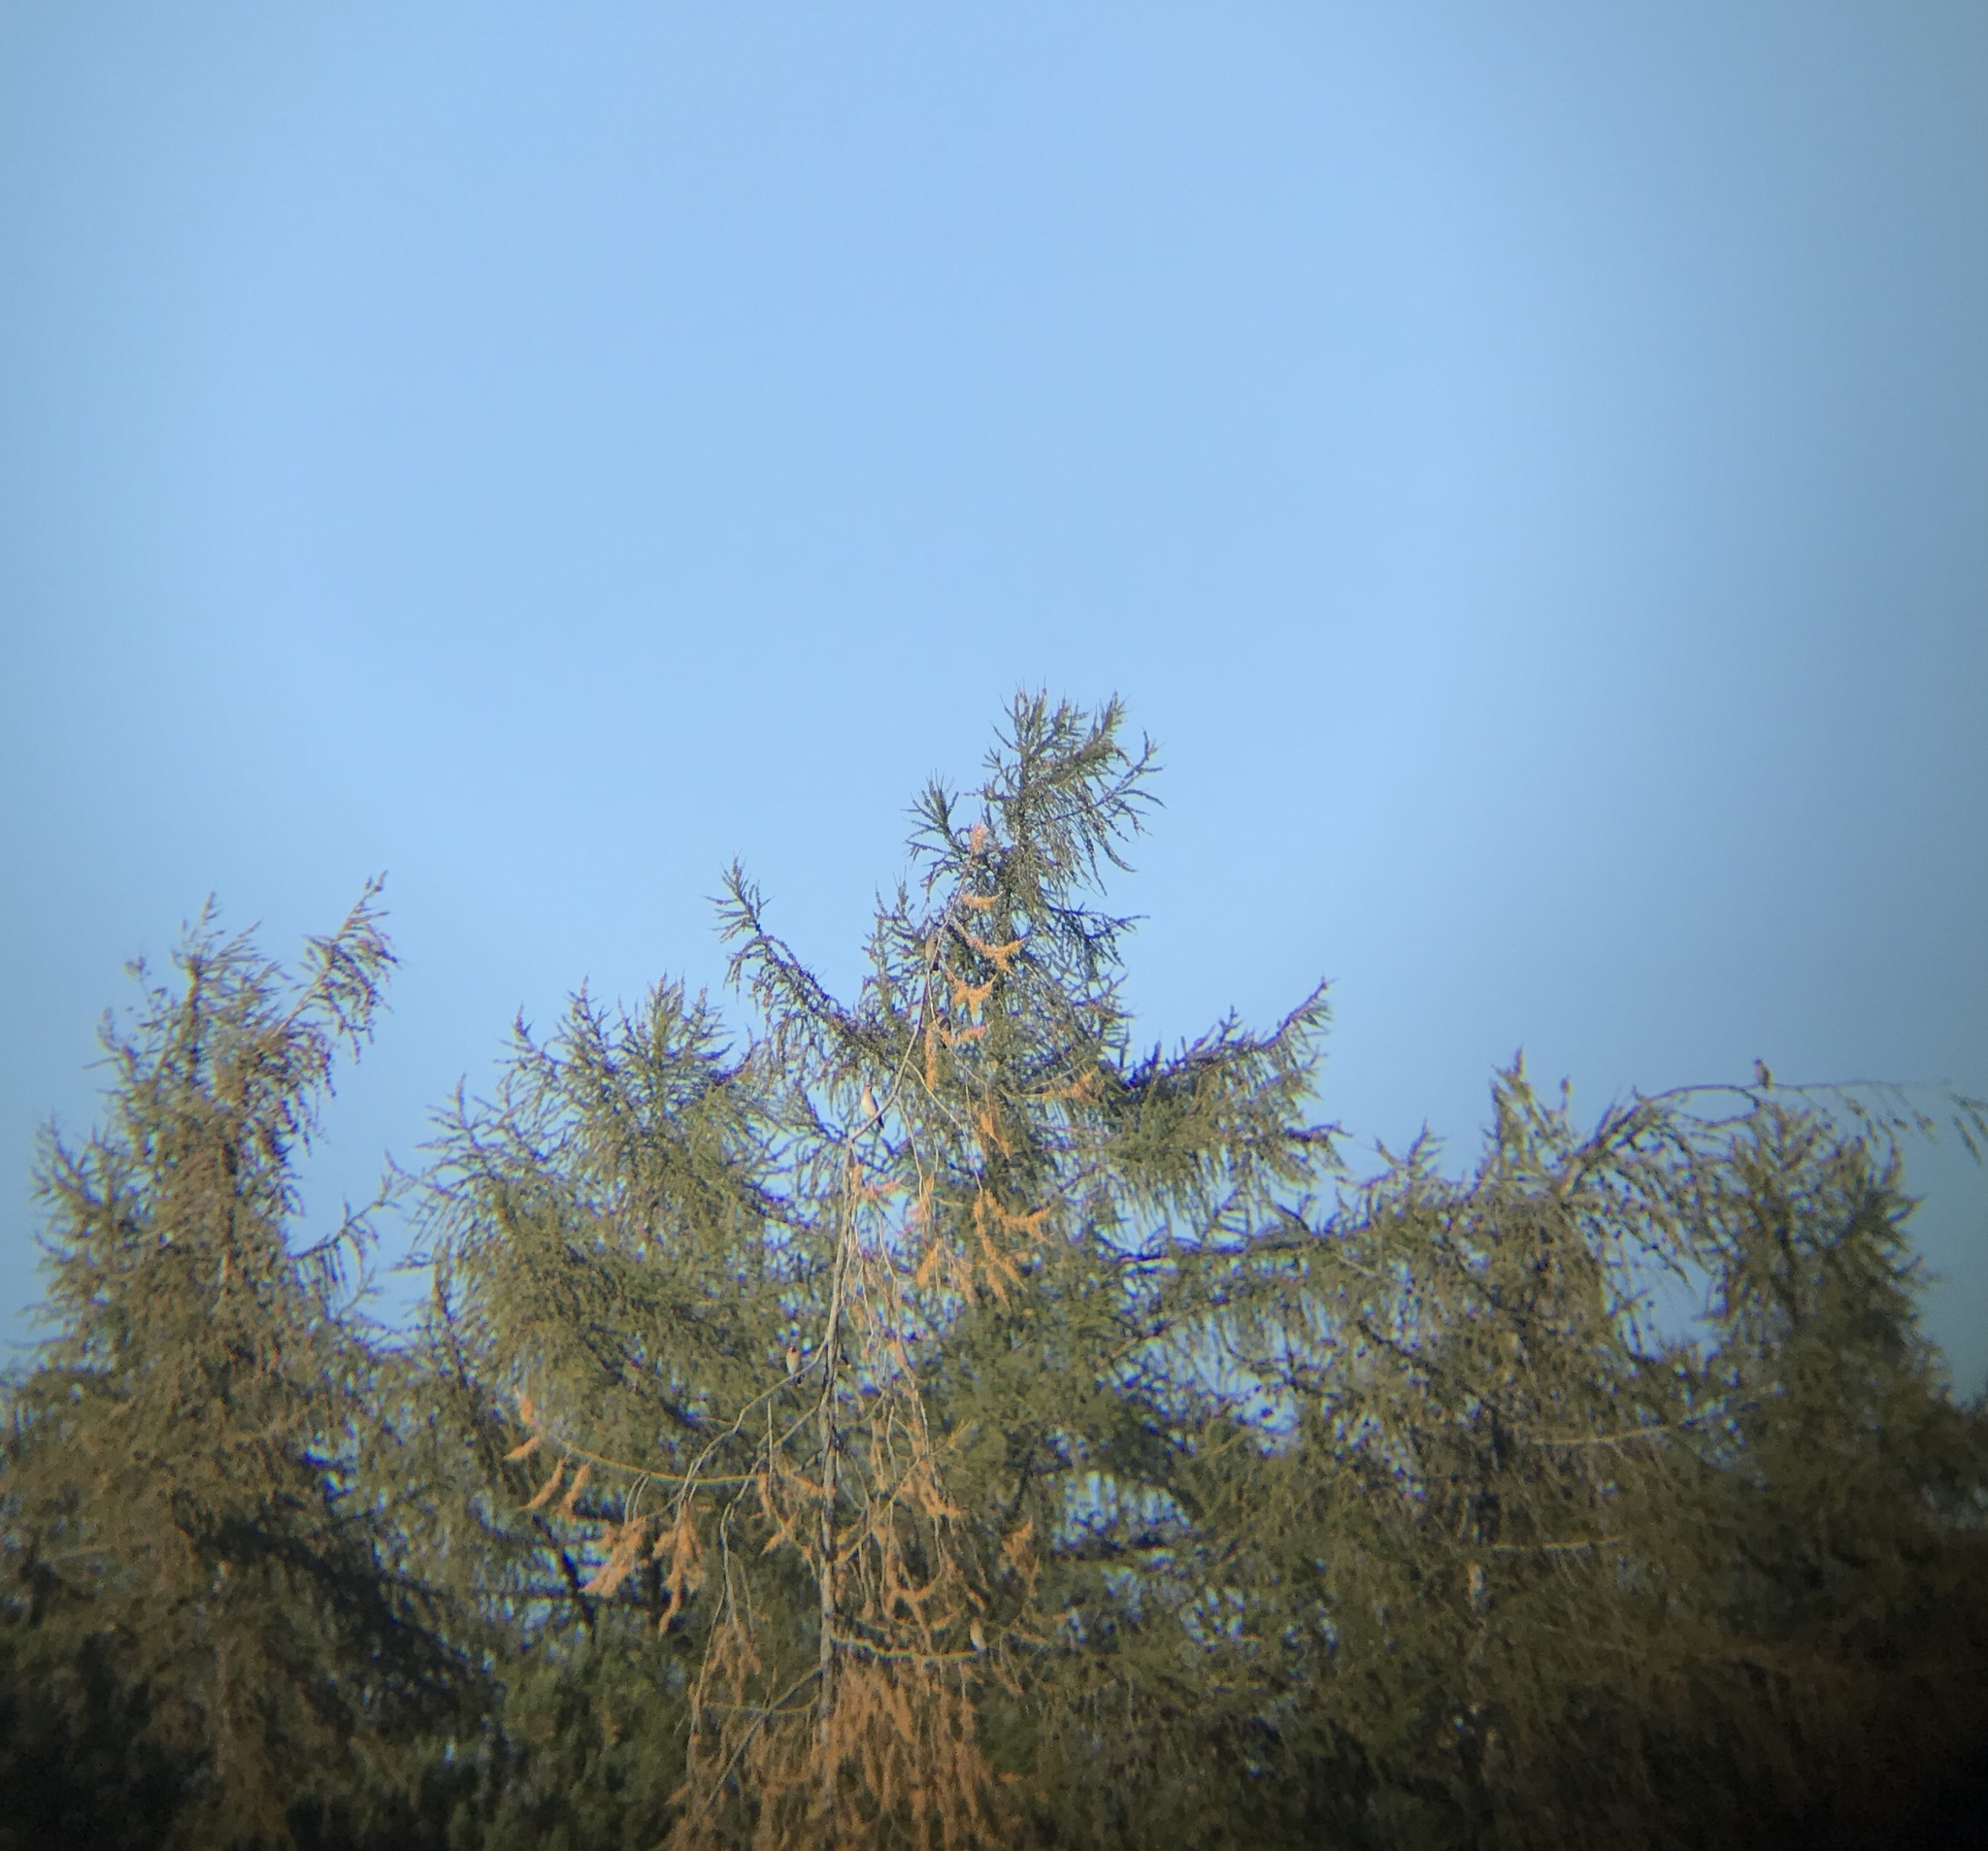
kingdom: Animalia
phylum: Chordata
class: Aves
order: Passeriformes
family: Bombycillidae
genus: Bombycilla
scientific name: Bombycilla garrulus
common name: Bohemian waxwing
